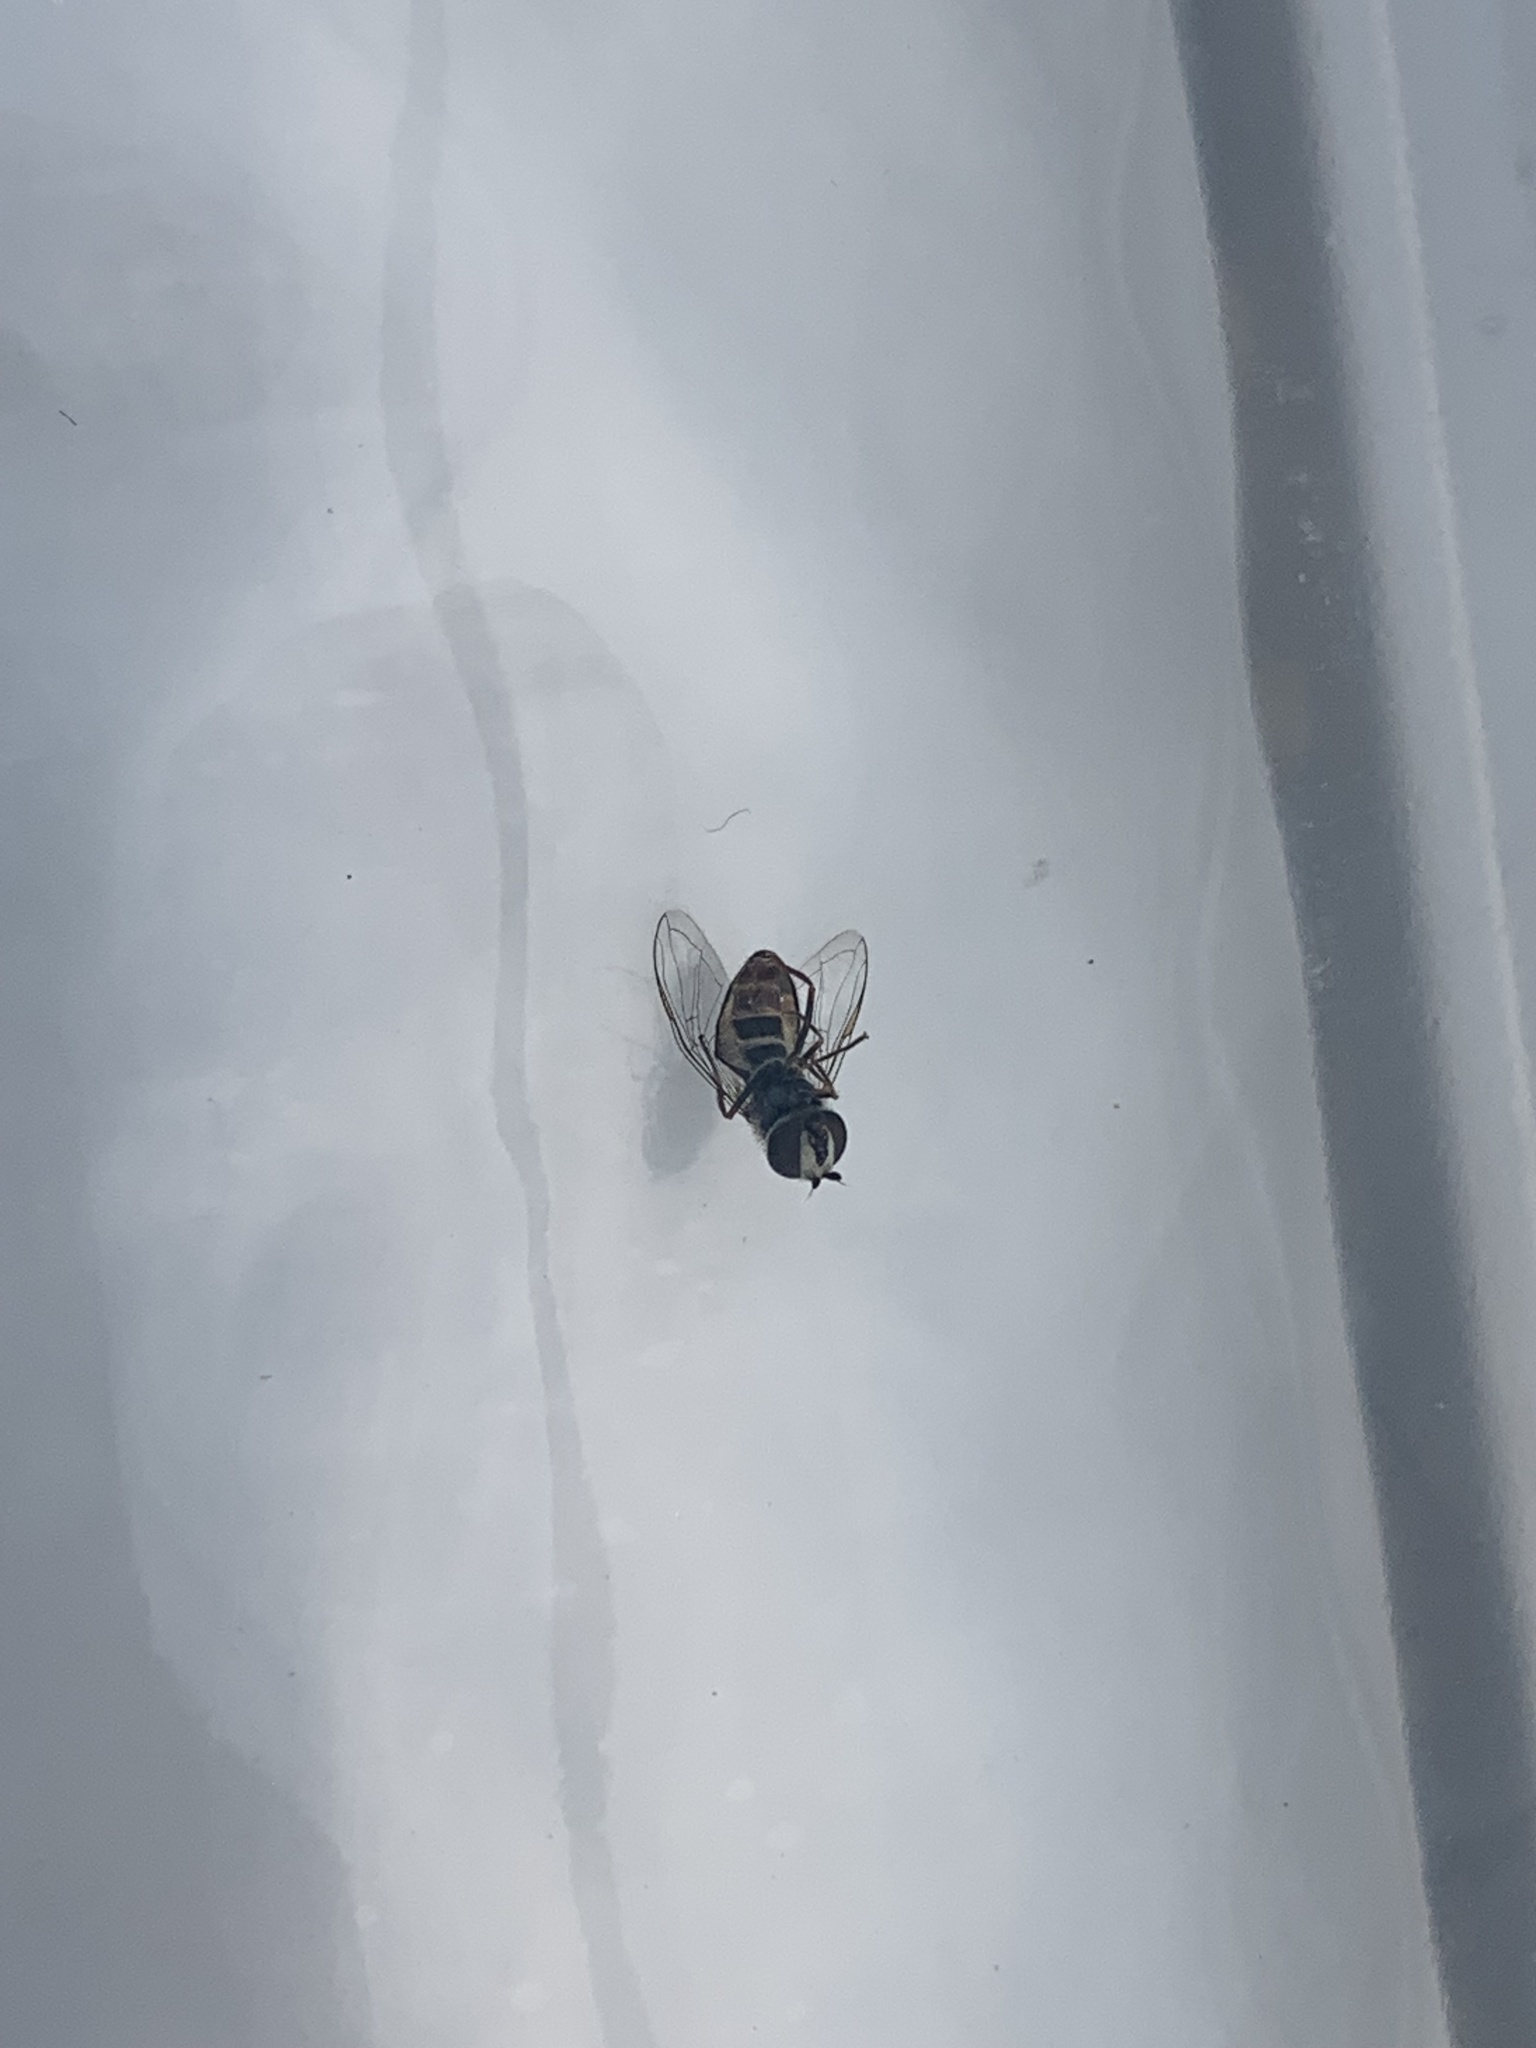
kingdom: Animalia
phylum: Arthropoda
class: Insecta
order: Diptera
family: Syrphidae
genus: Eupeodes
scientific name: Eupeodes volucris
